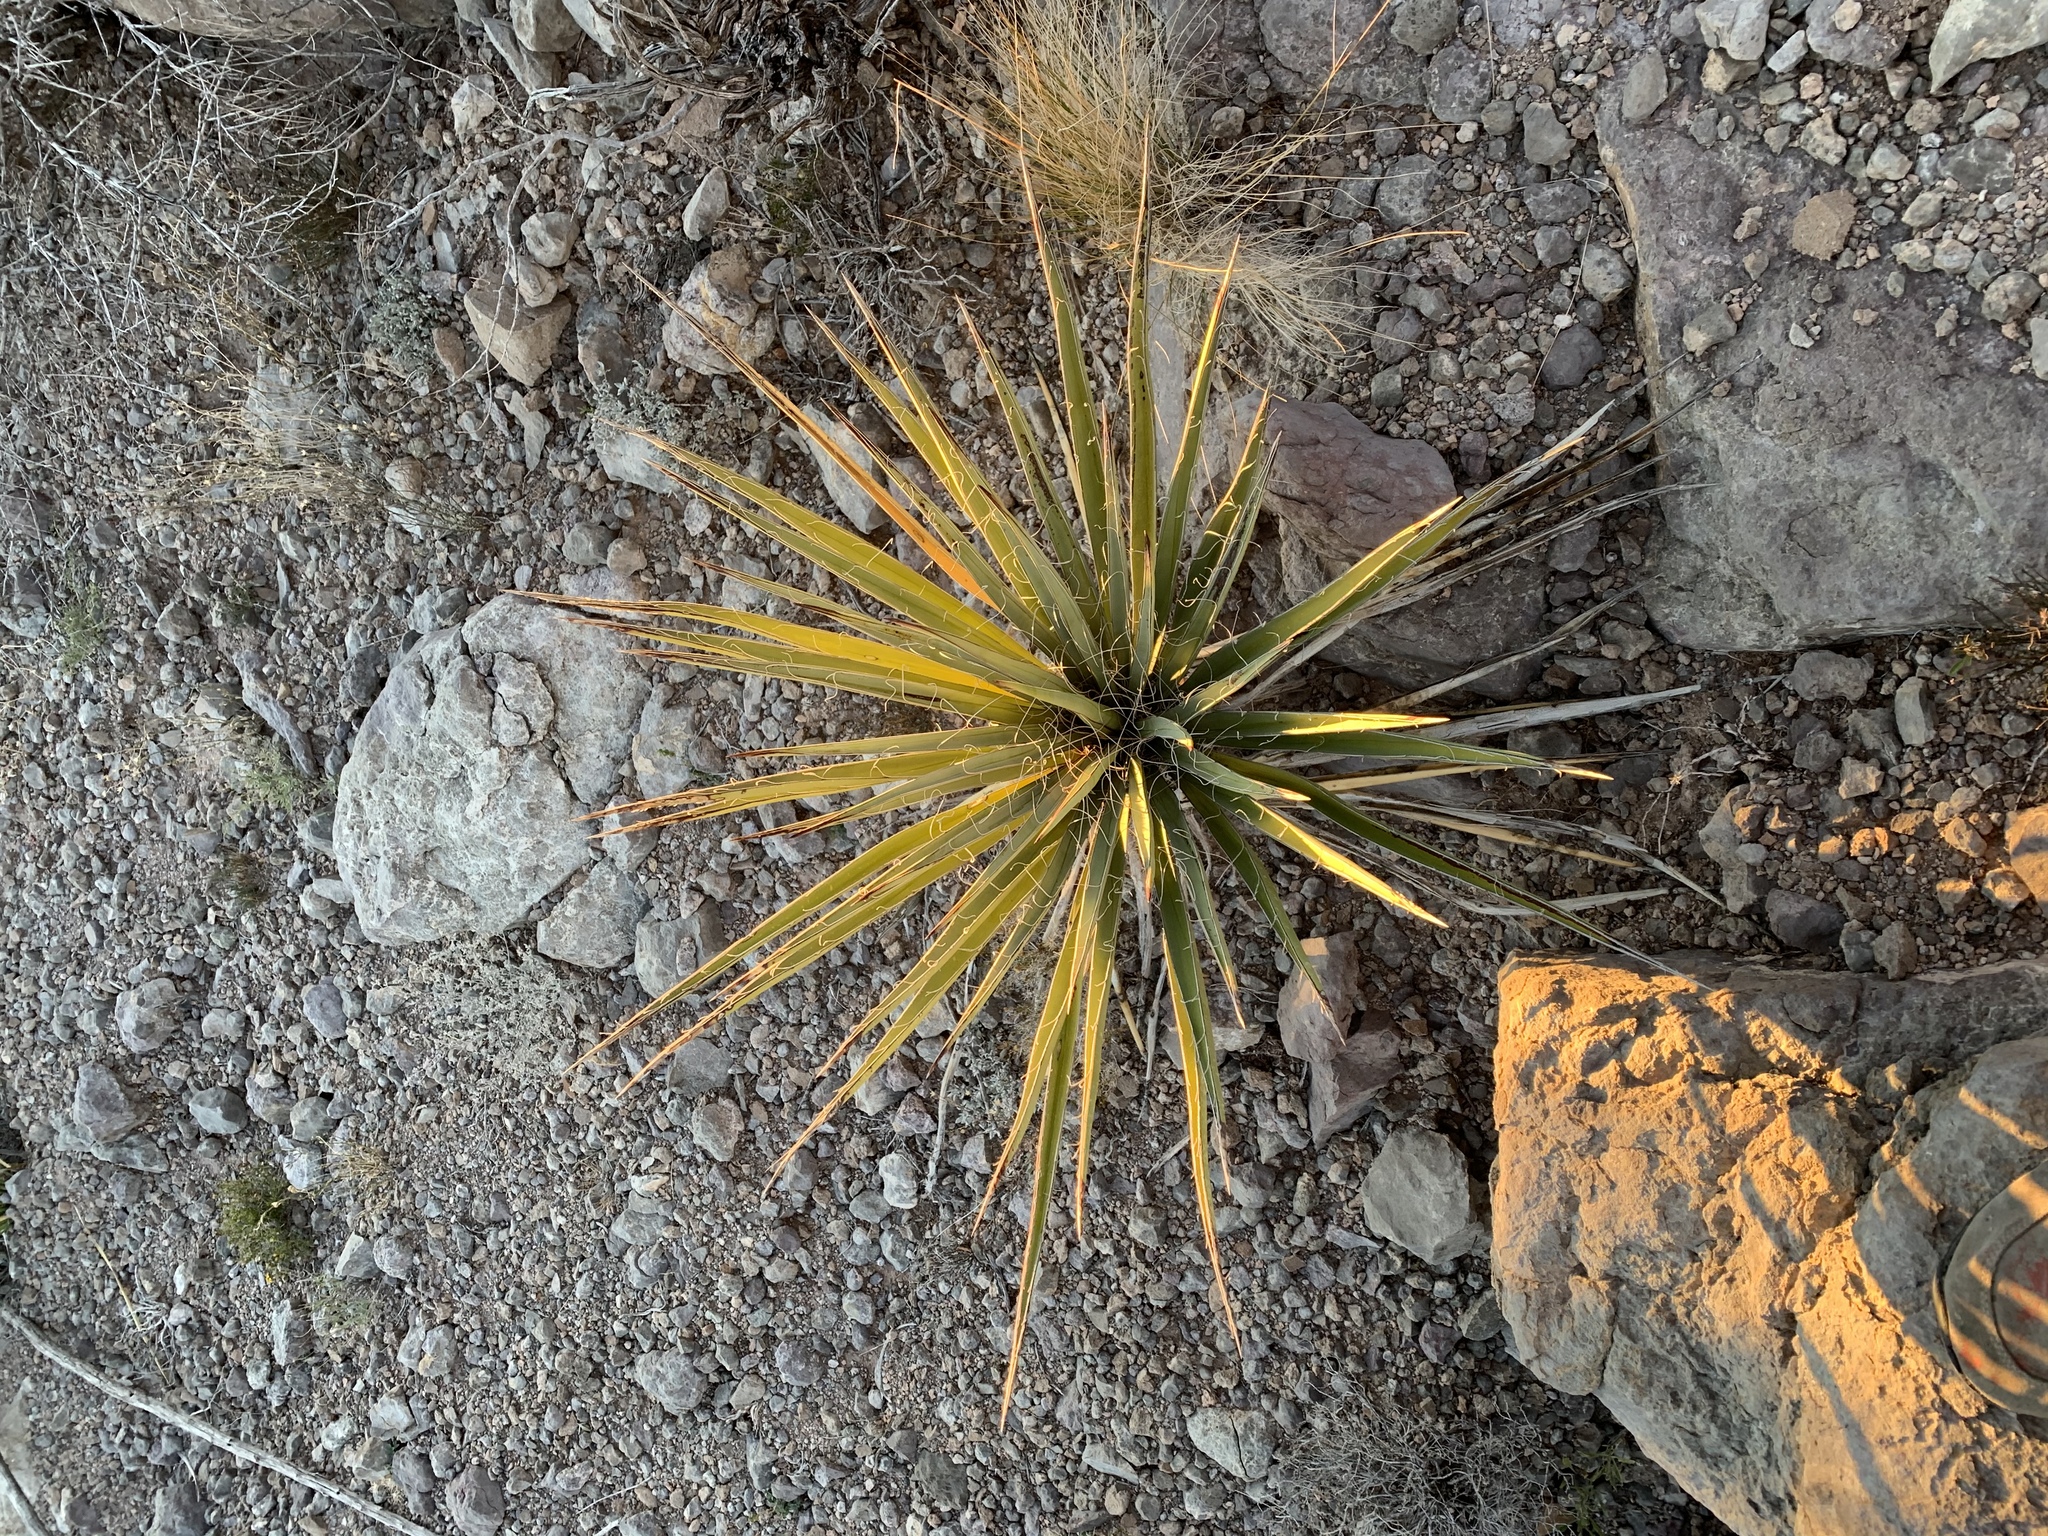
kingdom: Plantae
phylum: Tracheophyta
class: Liliopsida
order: Asparagales
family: Asparagaceae
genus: Yucca
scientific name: Yucca baccata
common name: Banana yucca
